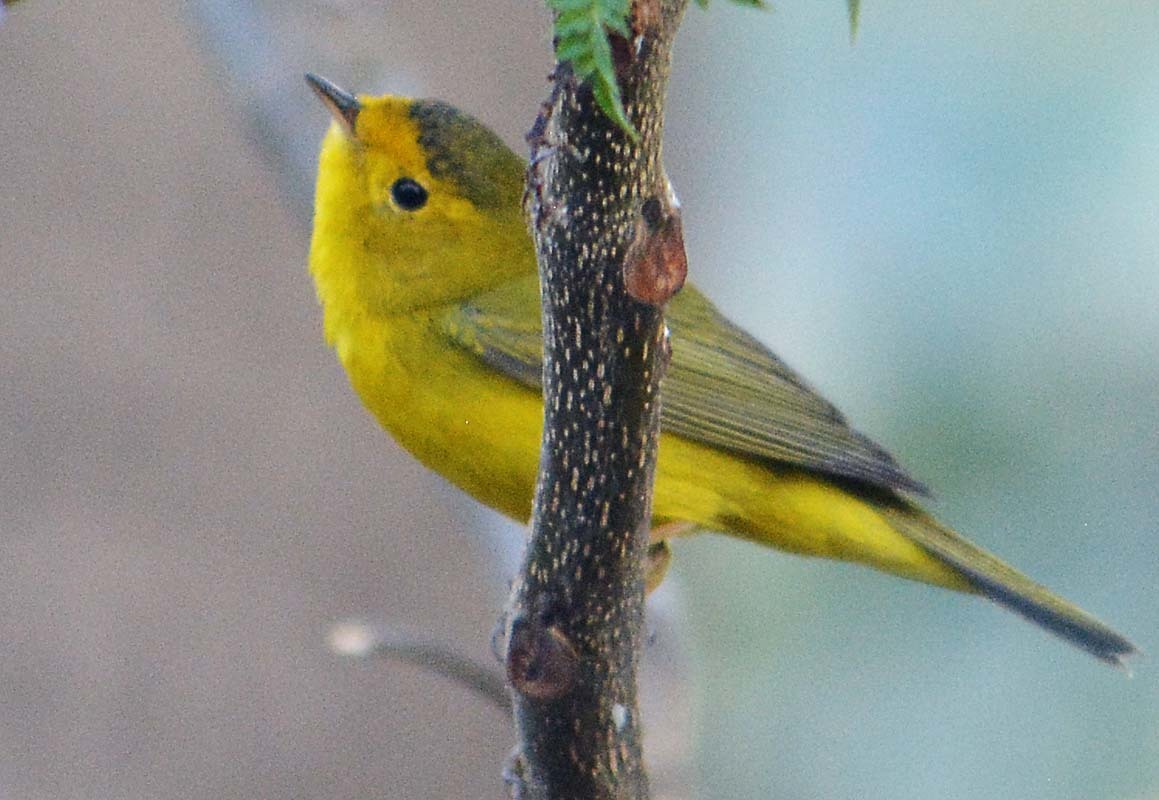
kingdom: Animalia
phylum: Chordata
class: Aves
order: Passeriformes
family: Parulidae
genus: Cardellina
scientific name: Cardellina pusilla
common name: Wilson's warbler
